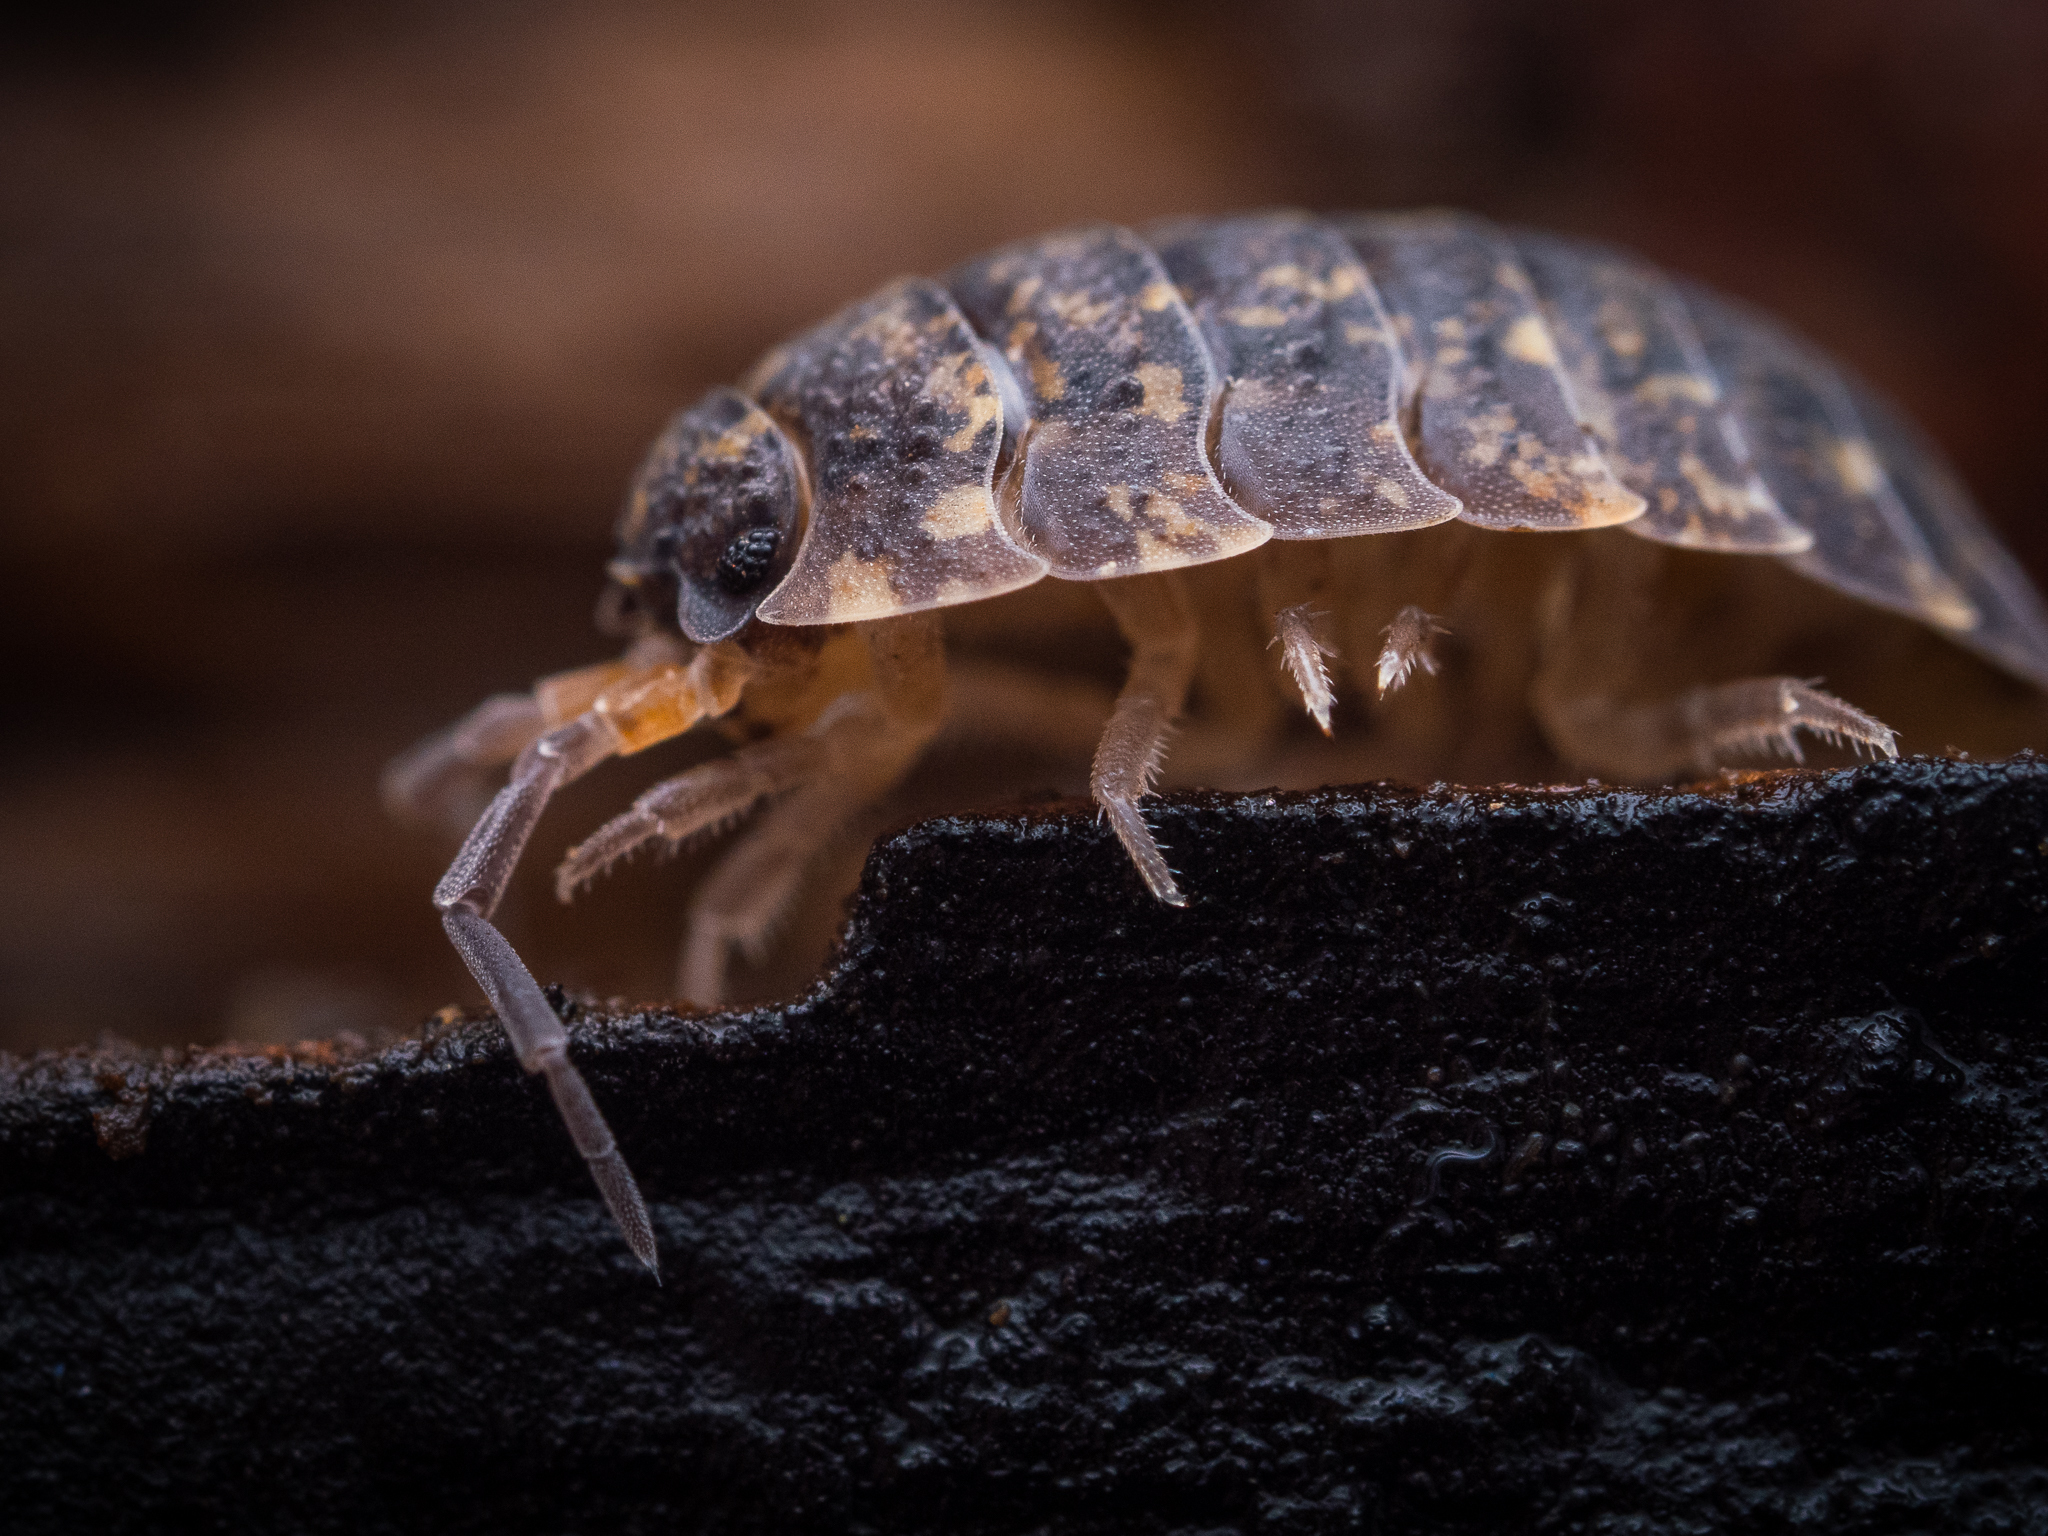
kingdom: Animalia
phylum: Arthropoda
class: Malacostraca
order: Isopoda
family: Porcellionidae
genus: Porcellio
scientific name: Porcellio scaber
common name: Common rough woodlouse
